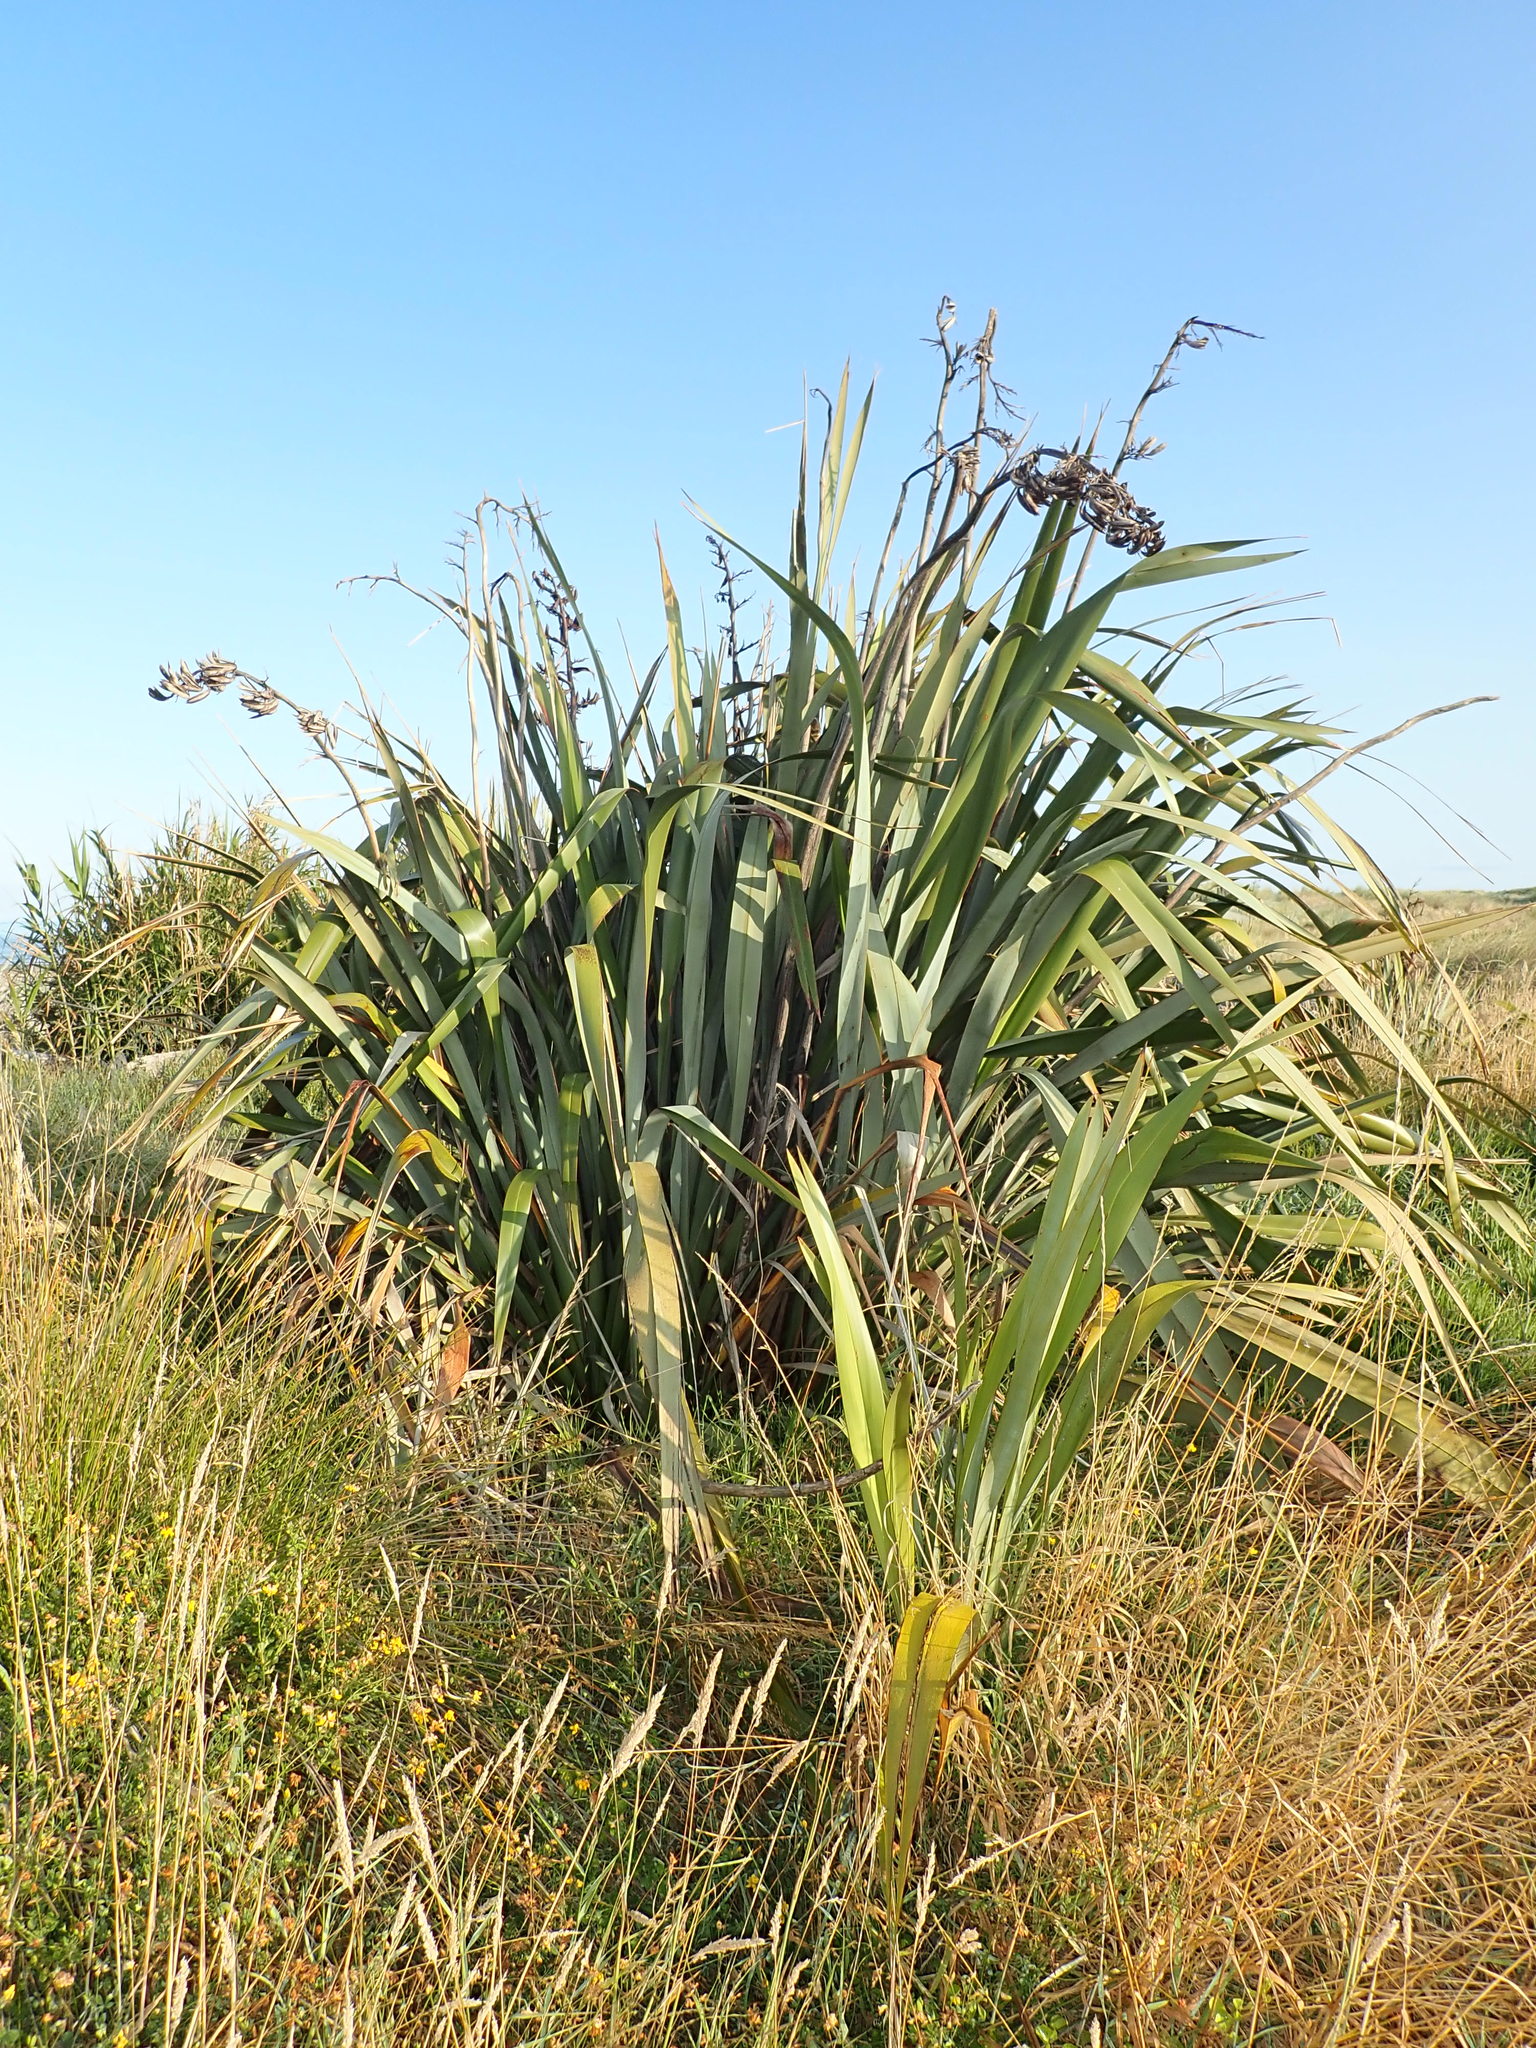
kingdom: Plantae
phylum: Tracheophyta
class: Liliopsida
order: Asparagales
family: Asphodelaceae
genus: Phormium
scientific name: Phormium tenax
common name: New zealand flax
